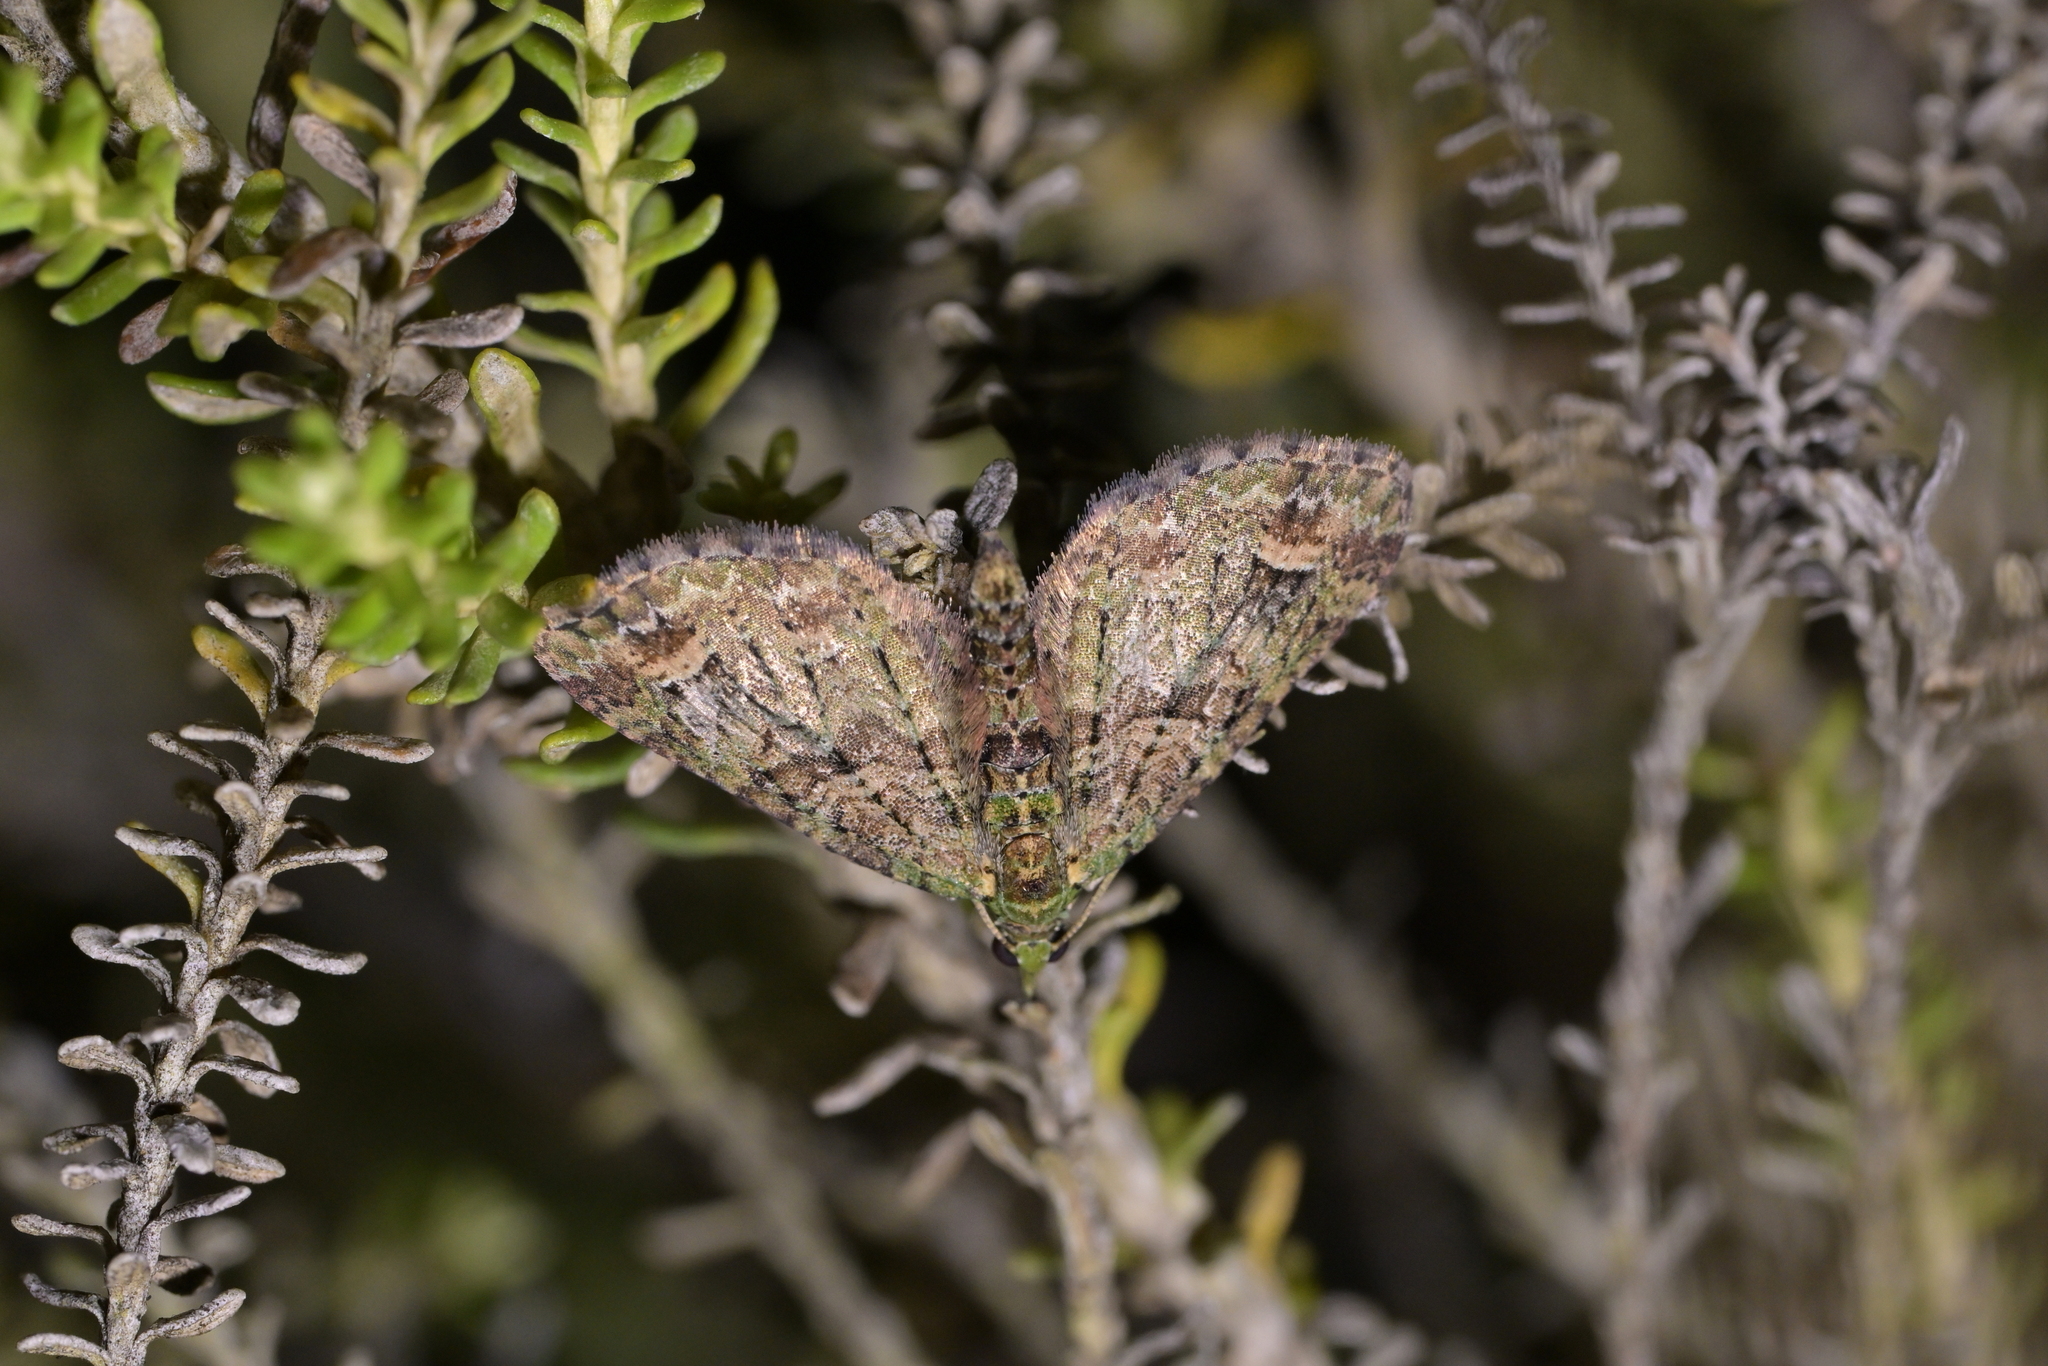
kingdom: Animalia
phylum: Arthropoda
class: Insecta
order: Lepidoptera
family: Geometridae
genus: Idaea
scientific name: Idaea mutanda
